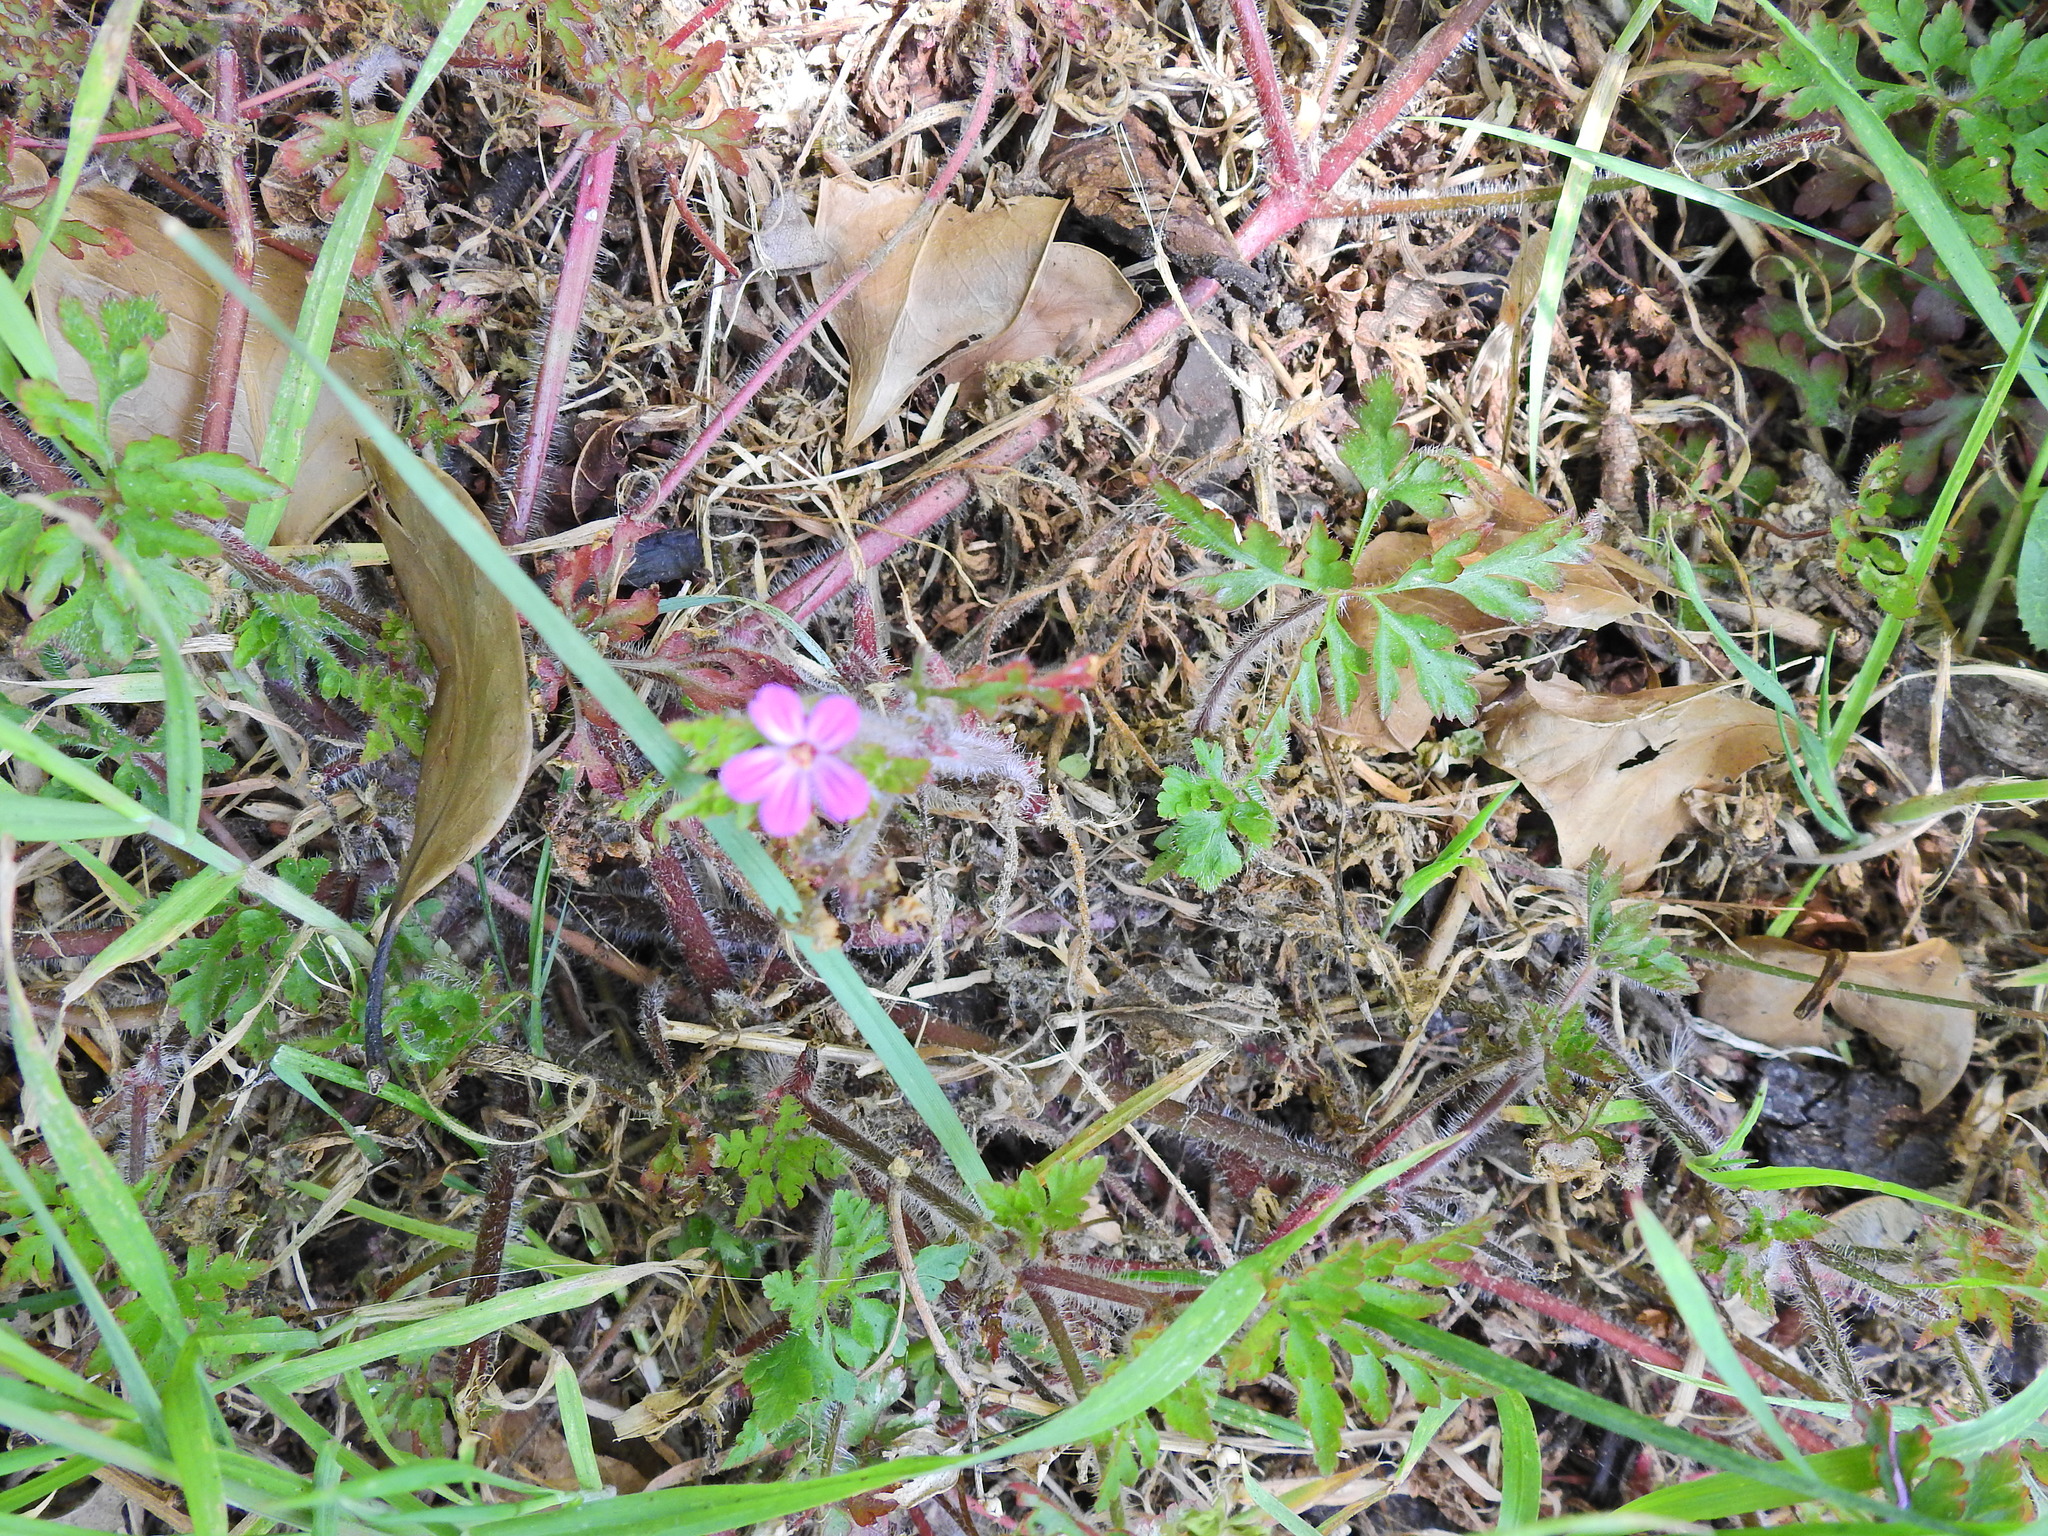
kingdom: Plantae
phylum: Tracheophyta
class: Magnoliopsida
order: Geraniales
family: Geraniaceae
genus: Geranium
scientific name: Geranium robertianum
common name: Herb-robert
